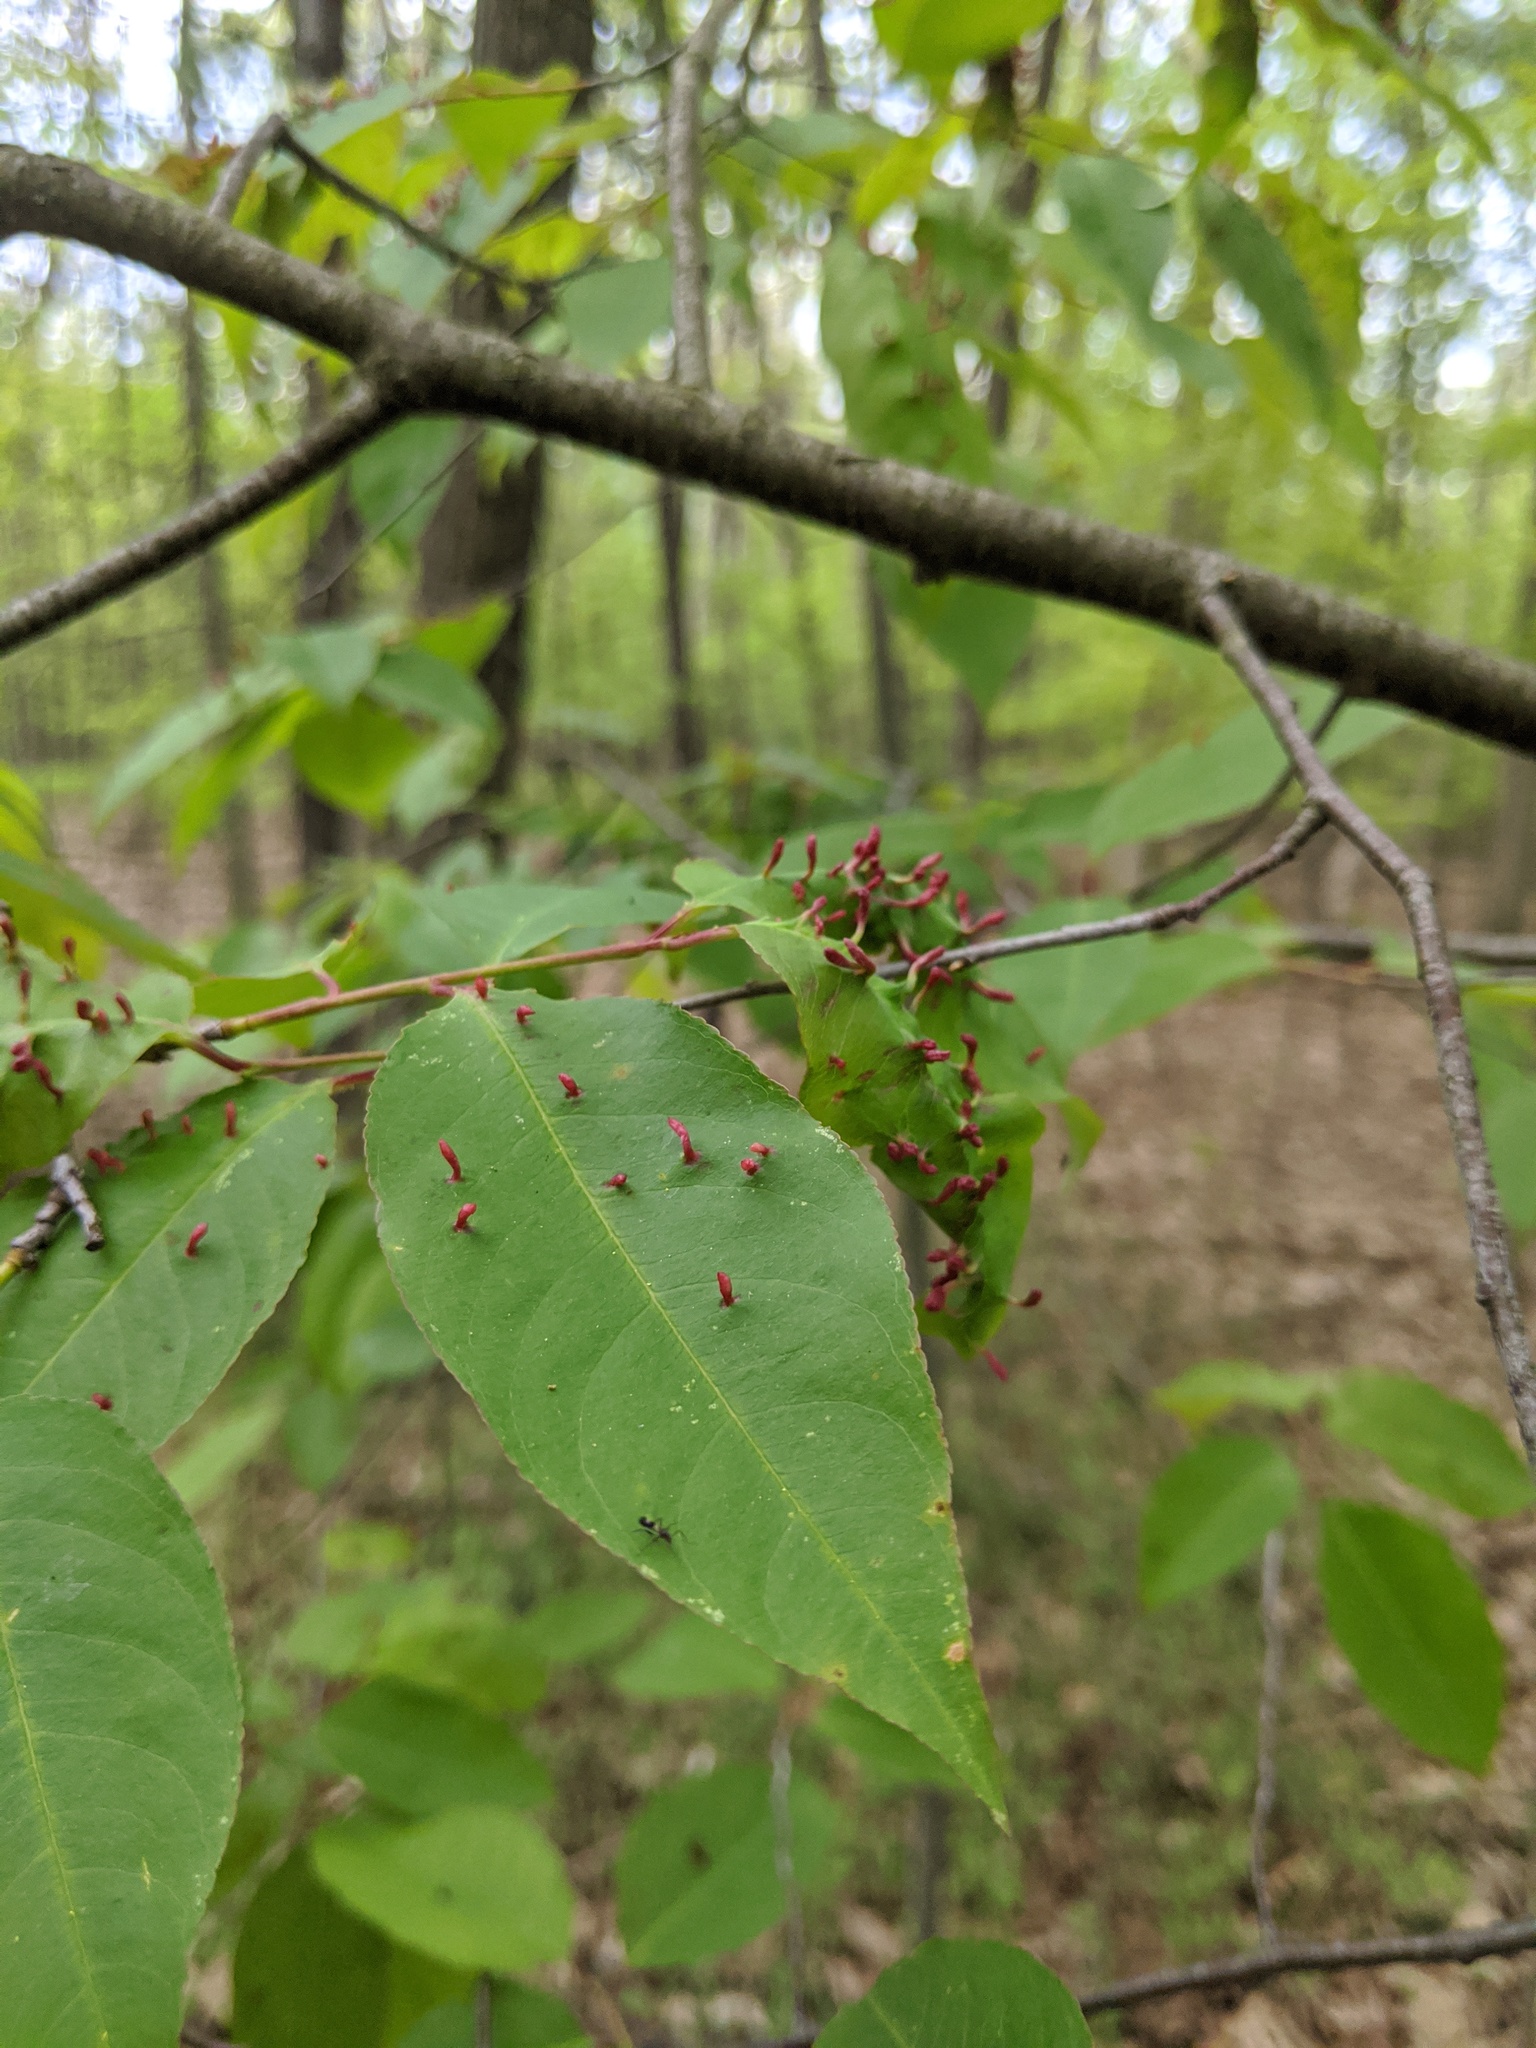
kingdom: Animalia
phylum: Arthropoda
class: Arachnida
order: Trombidiformes
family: Eriophyidae
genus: Eriophyes
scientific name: Eriophyes
